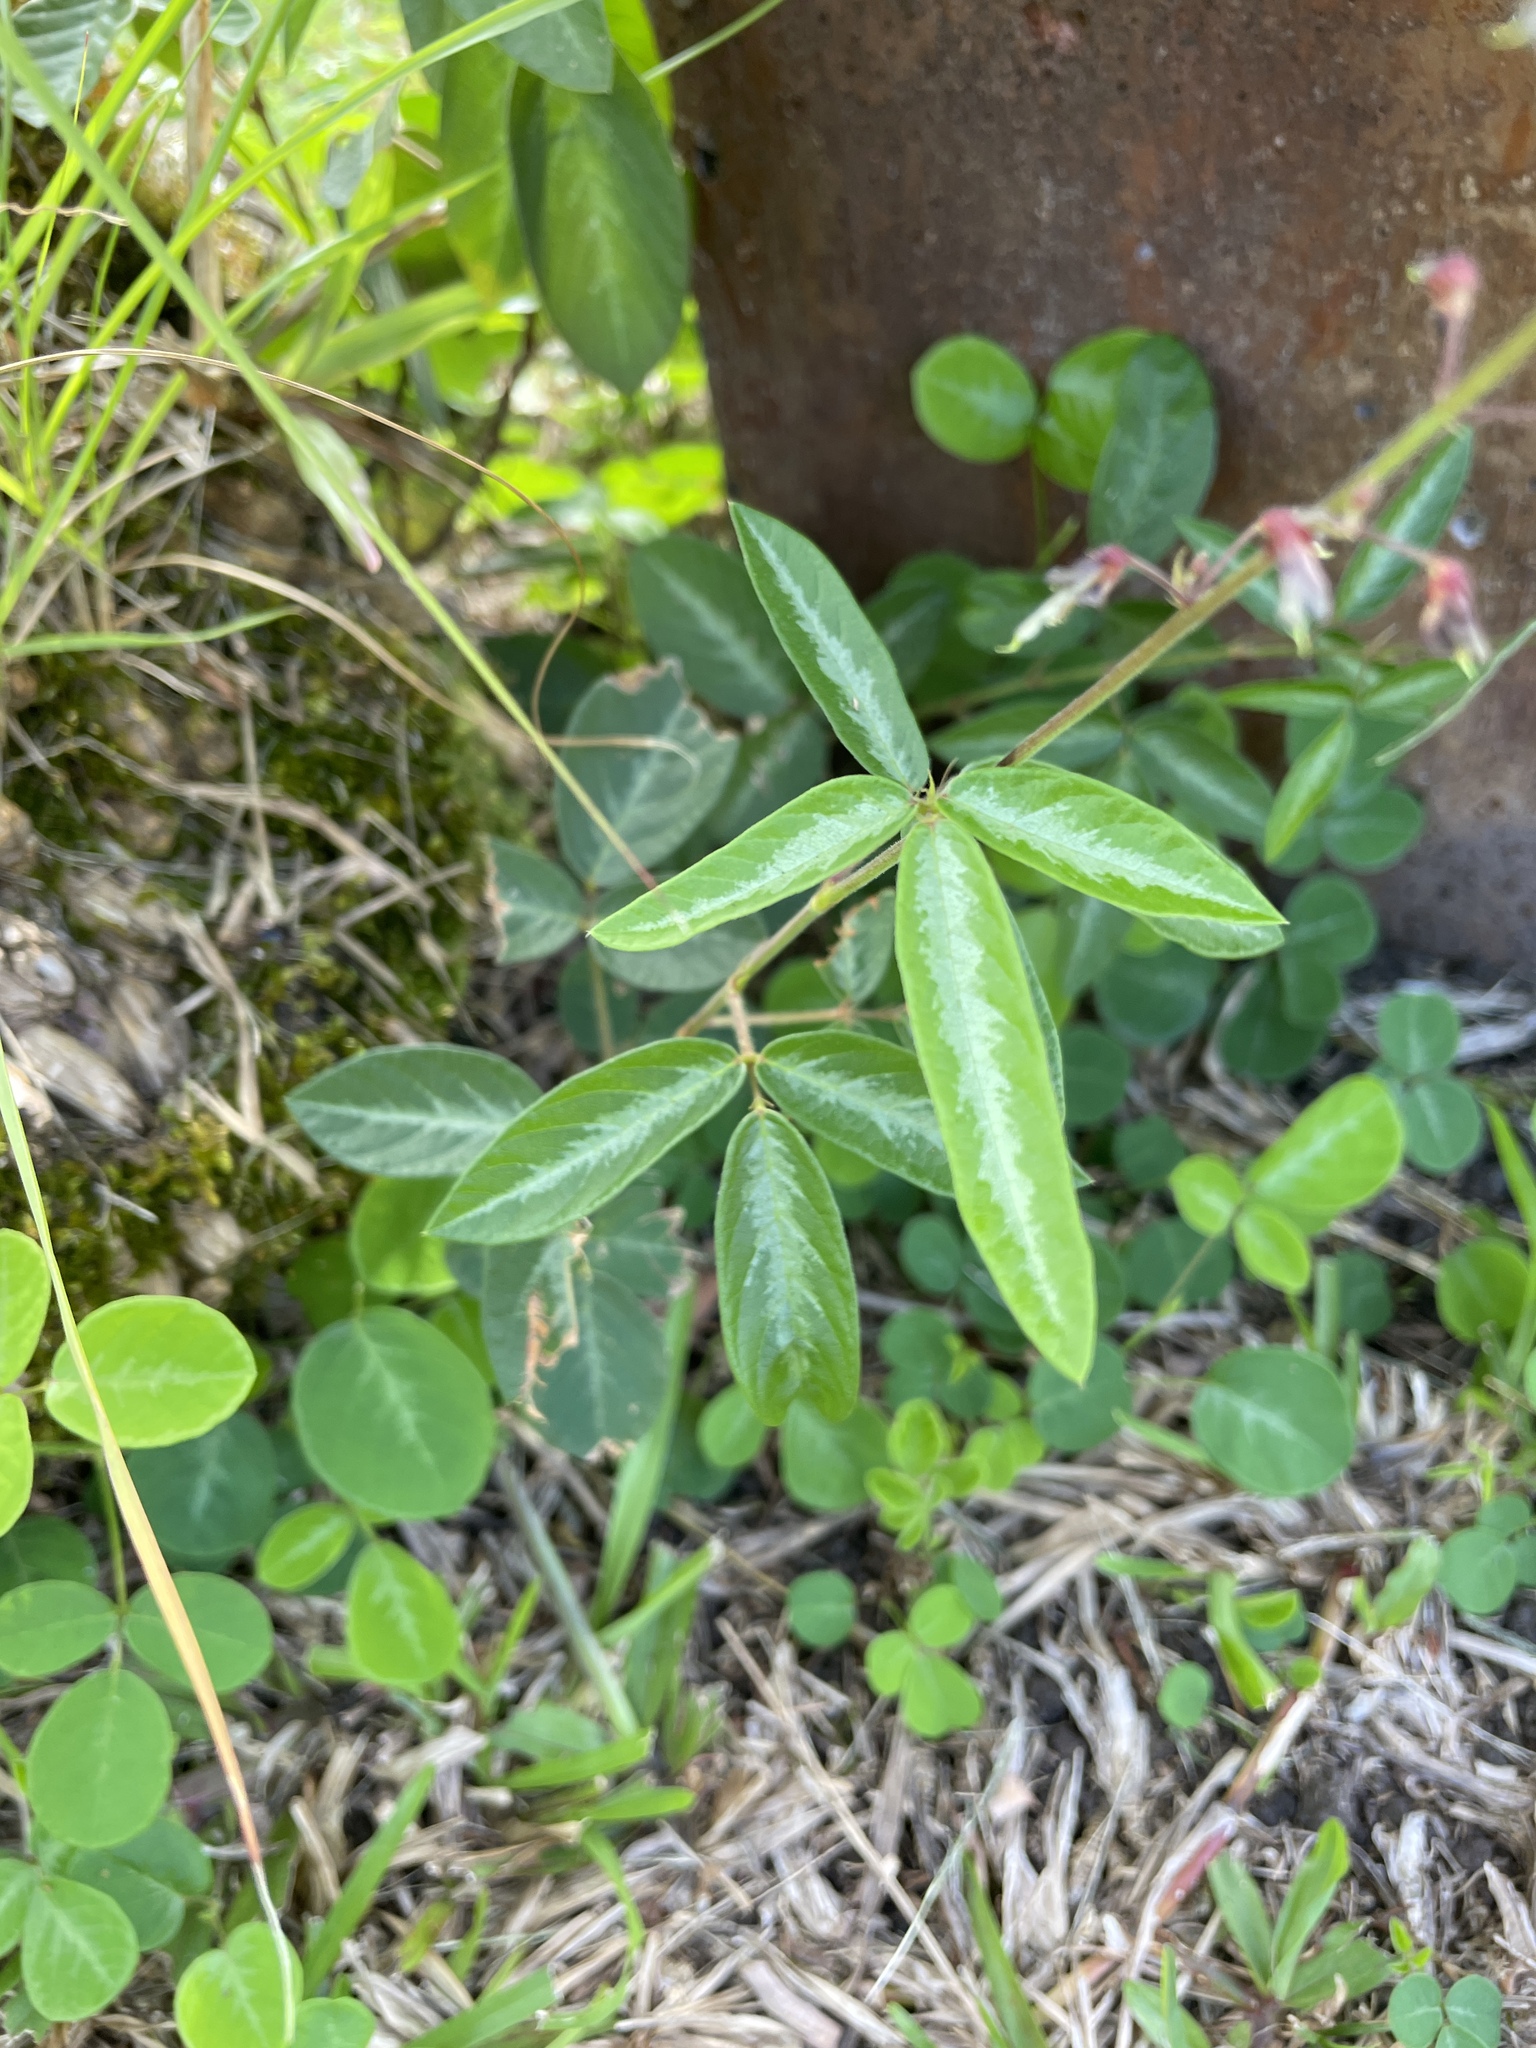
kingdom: Plantae
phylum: Tracheophyta
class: Magnoliopsida
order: Fabales
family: Fabaceae
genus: Desmodium
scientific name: Desmodium incanum
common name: Tickclover
